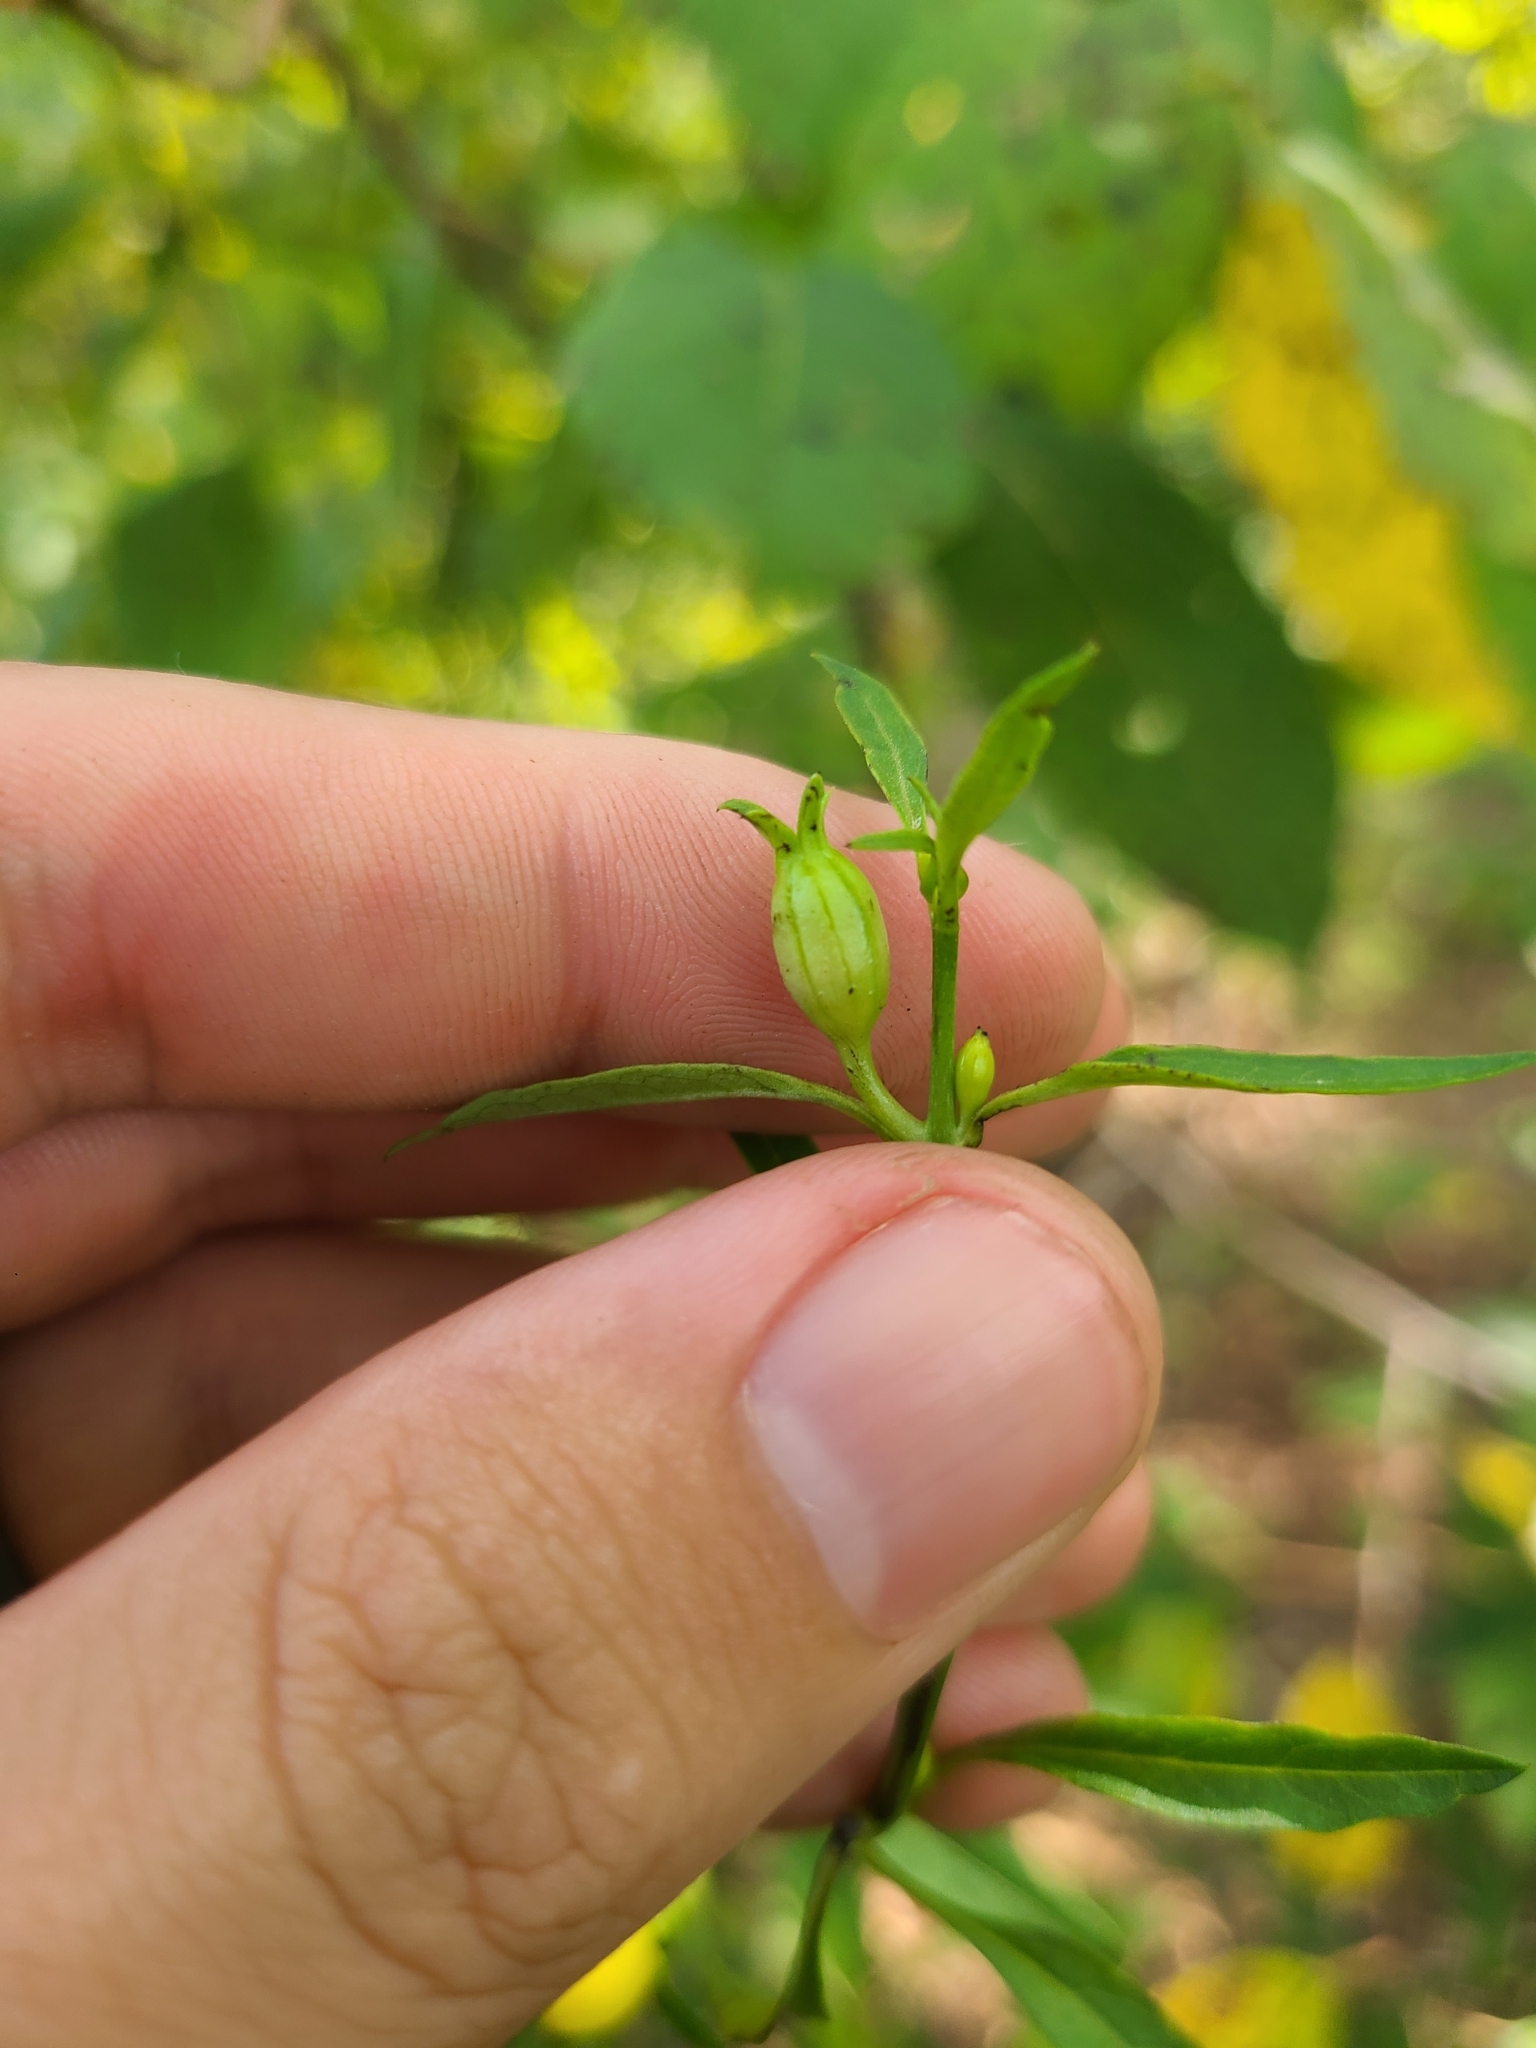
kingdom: Plantae
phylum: Tracheophyta
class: Magnoliopsida
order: Lamiales
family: Orobanchaceae
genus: Aureolaria
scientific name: Aureolaria flava
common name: Smooth false foxglove
